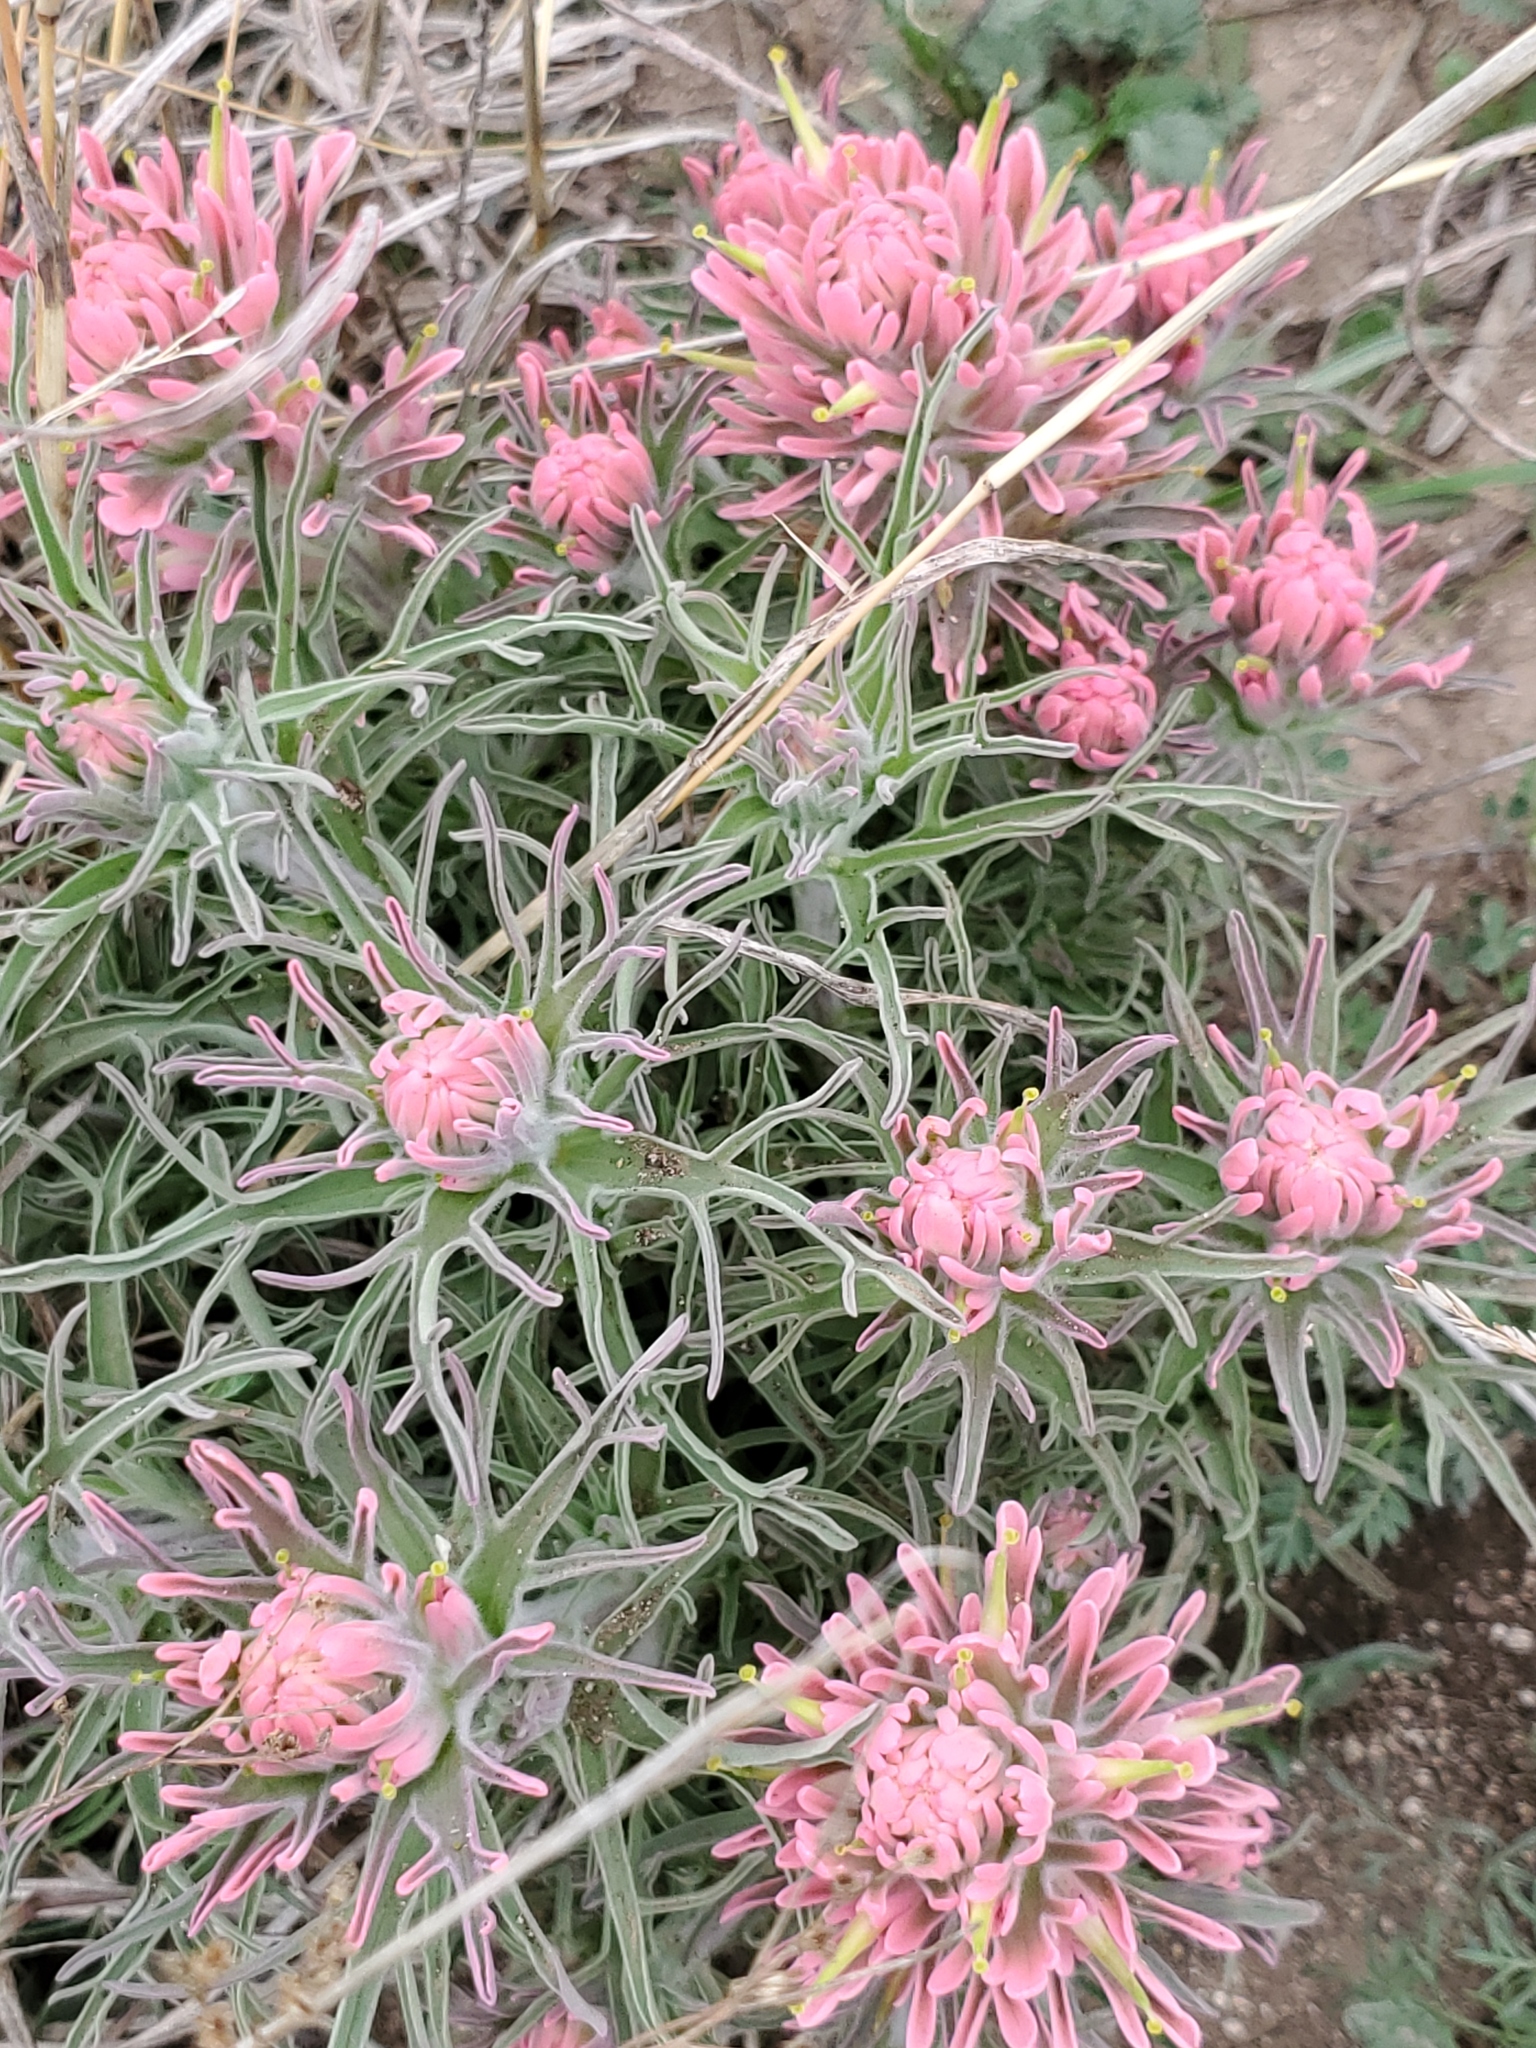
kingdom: Plantae
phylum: Tracheophyta
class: Magnoliopsida
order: Lamiales
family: Orobanchaceae
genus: Castilleja
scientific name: Castilleja purpurea
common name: Plains paintbrush
